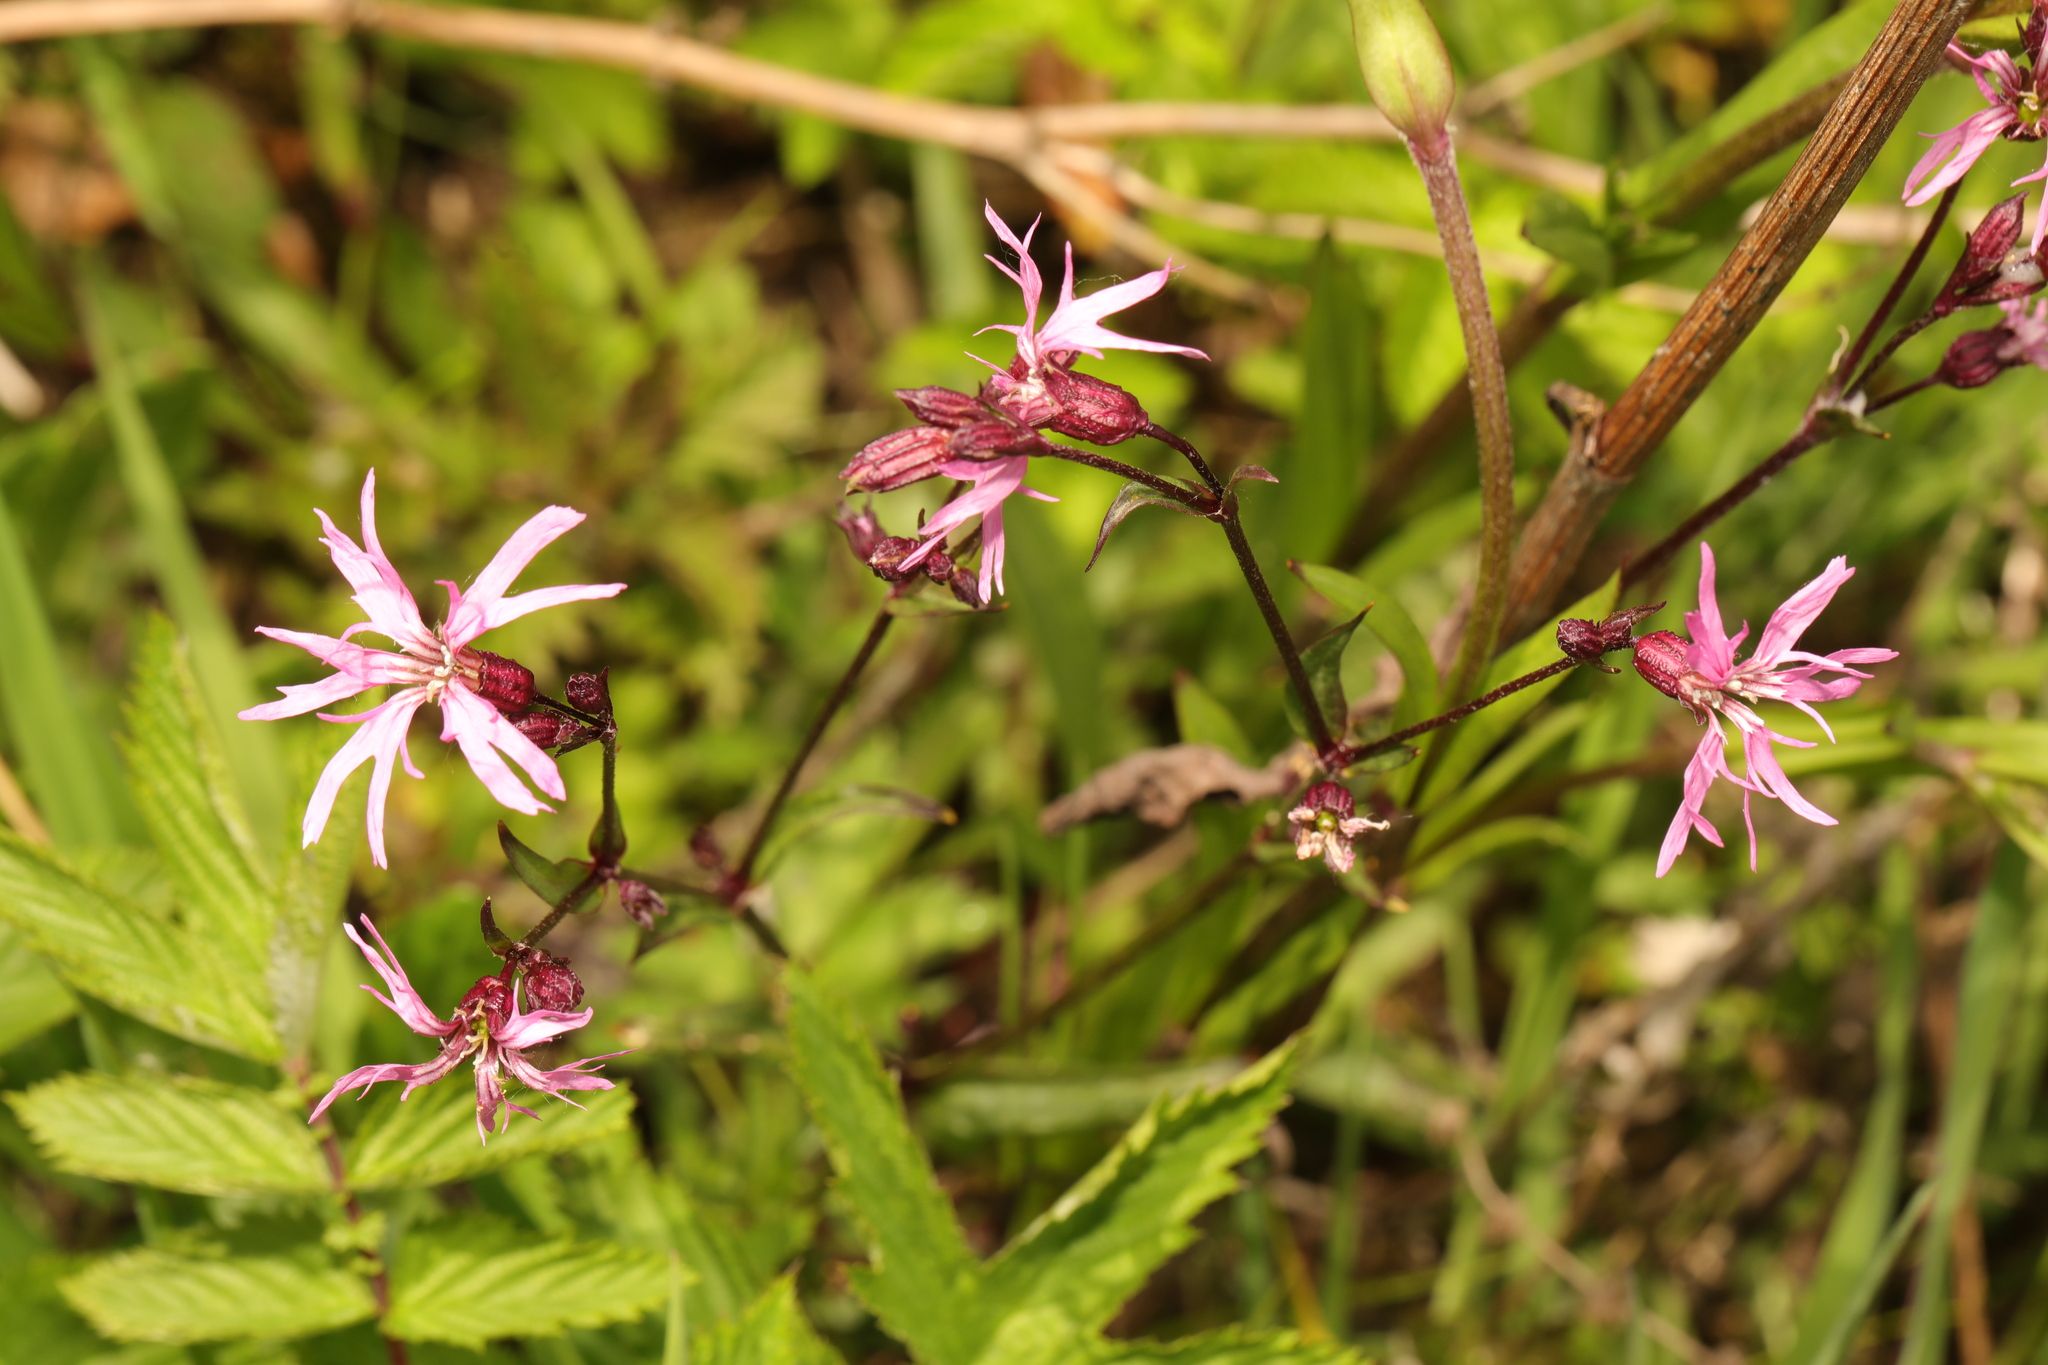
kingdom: Plantae
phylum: Tracheophyta
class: Magnoliopsida
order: Caryophyllales
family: Caryophyllaceae
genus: Silene
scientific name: Silene flos-cuculi
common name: Ragged-robin
